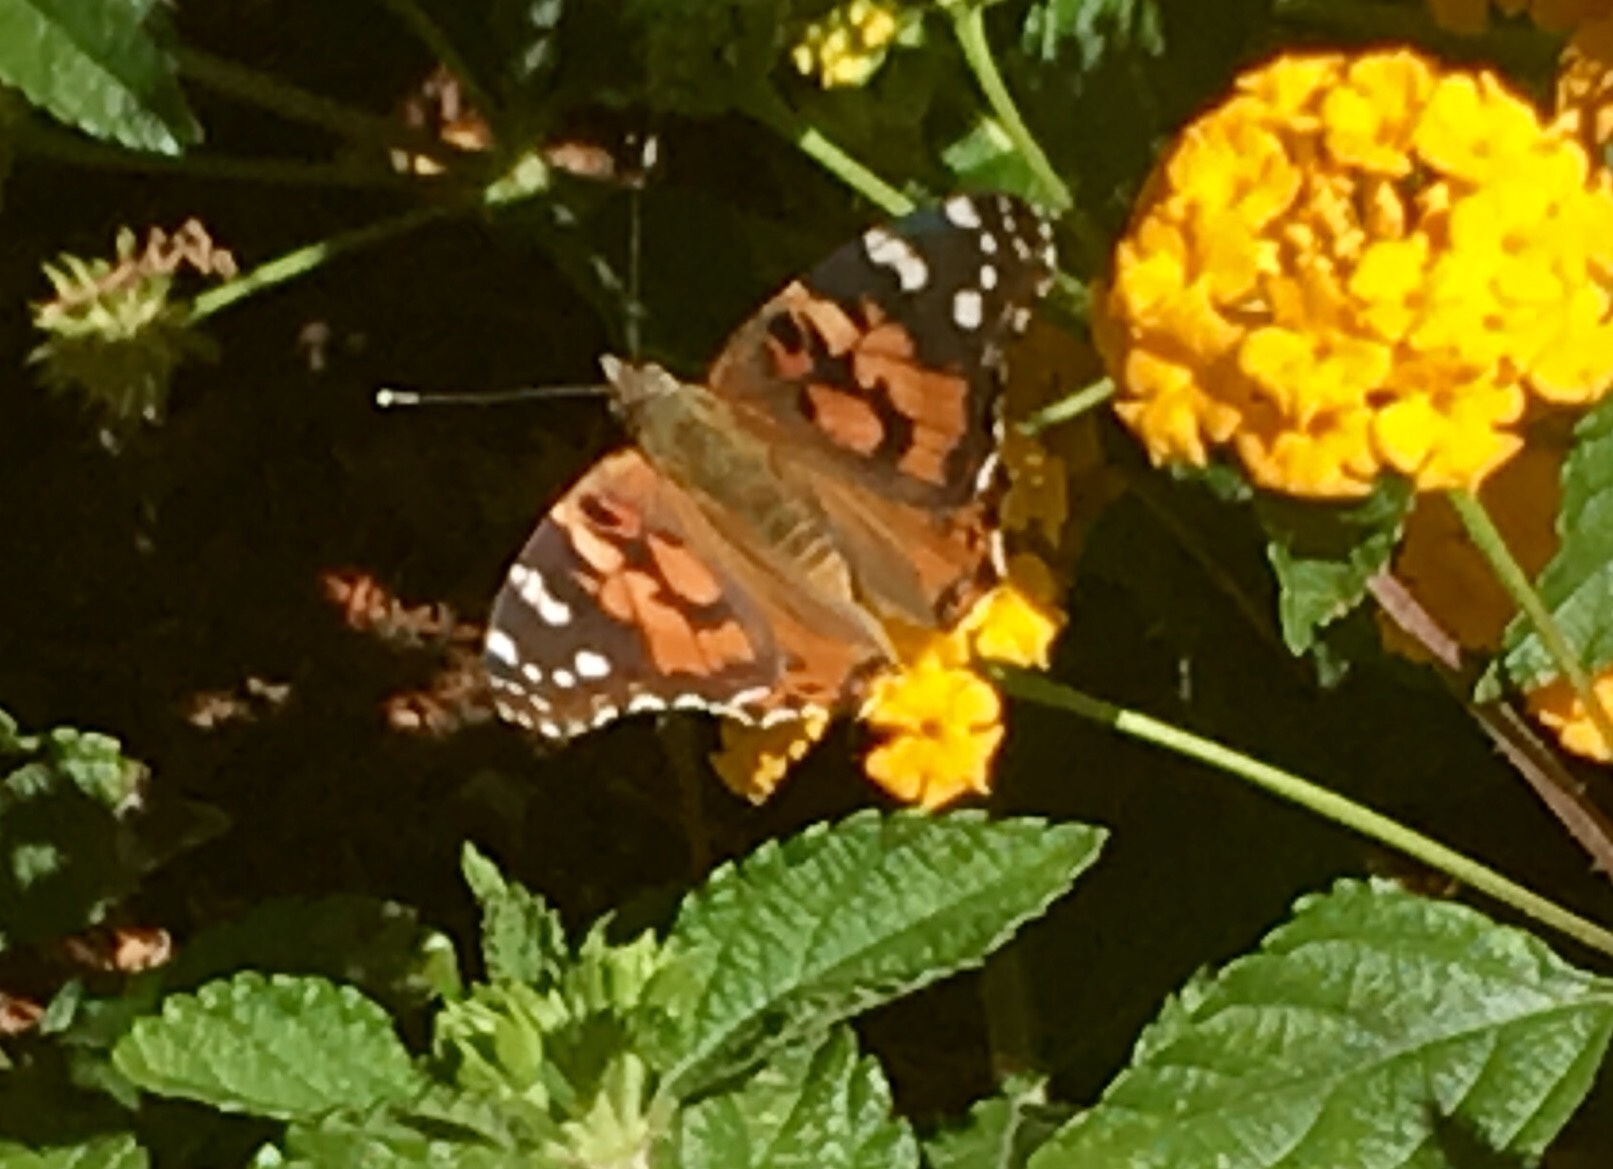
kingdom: Animalia
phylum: Arthropoda
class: Insecta
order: Lepidoptera
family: Nymphalidae
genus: Vanessa
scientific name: Vanessa cardui
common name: Painted lady
